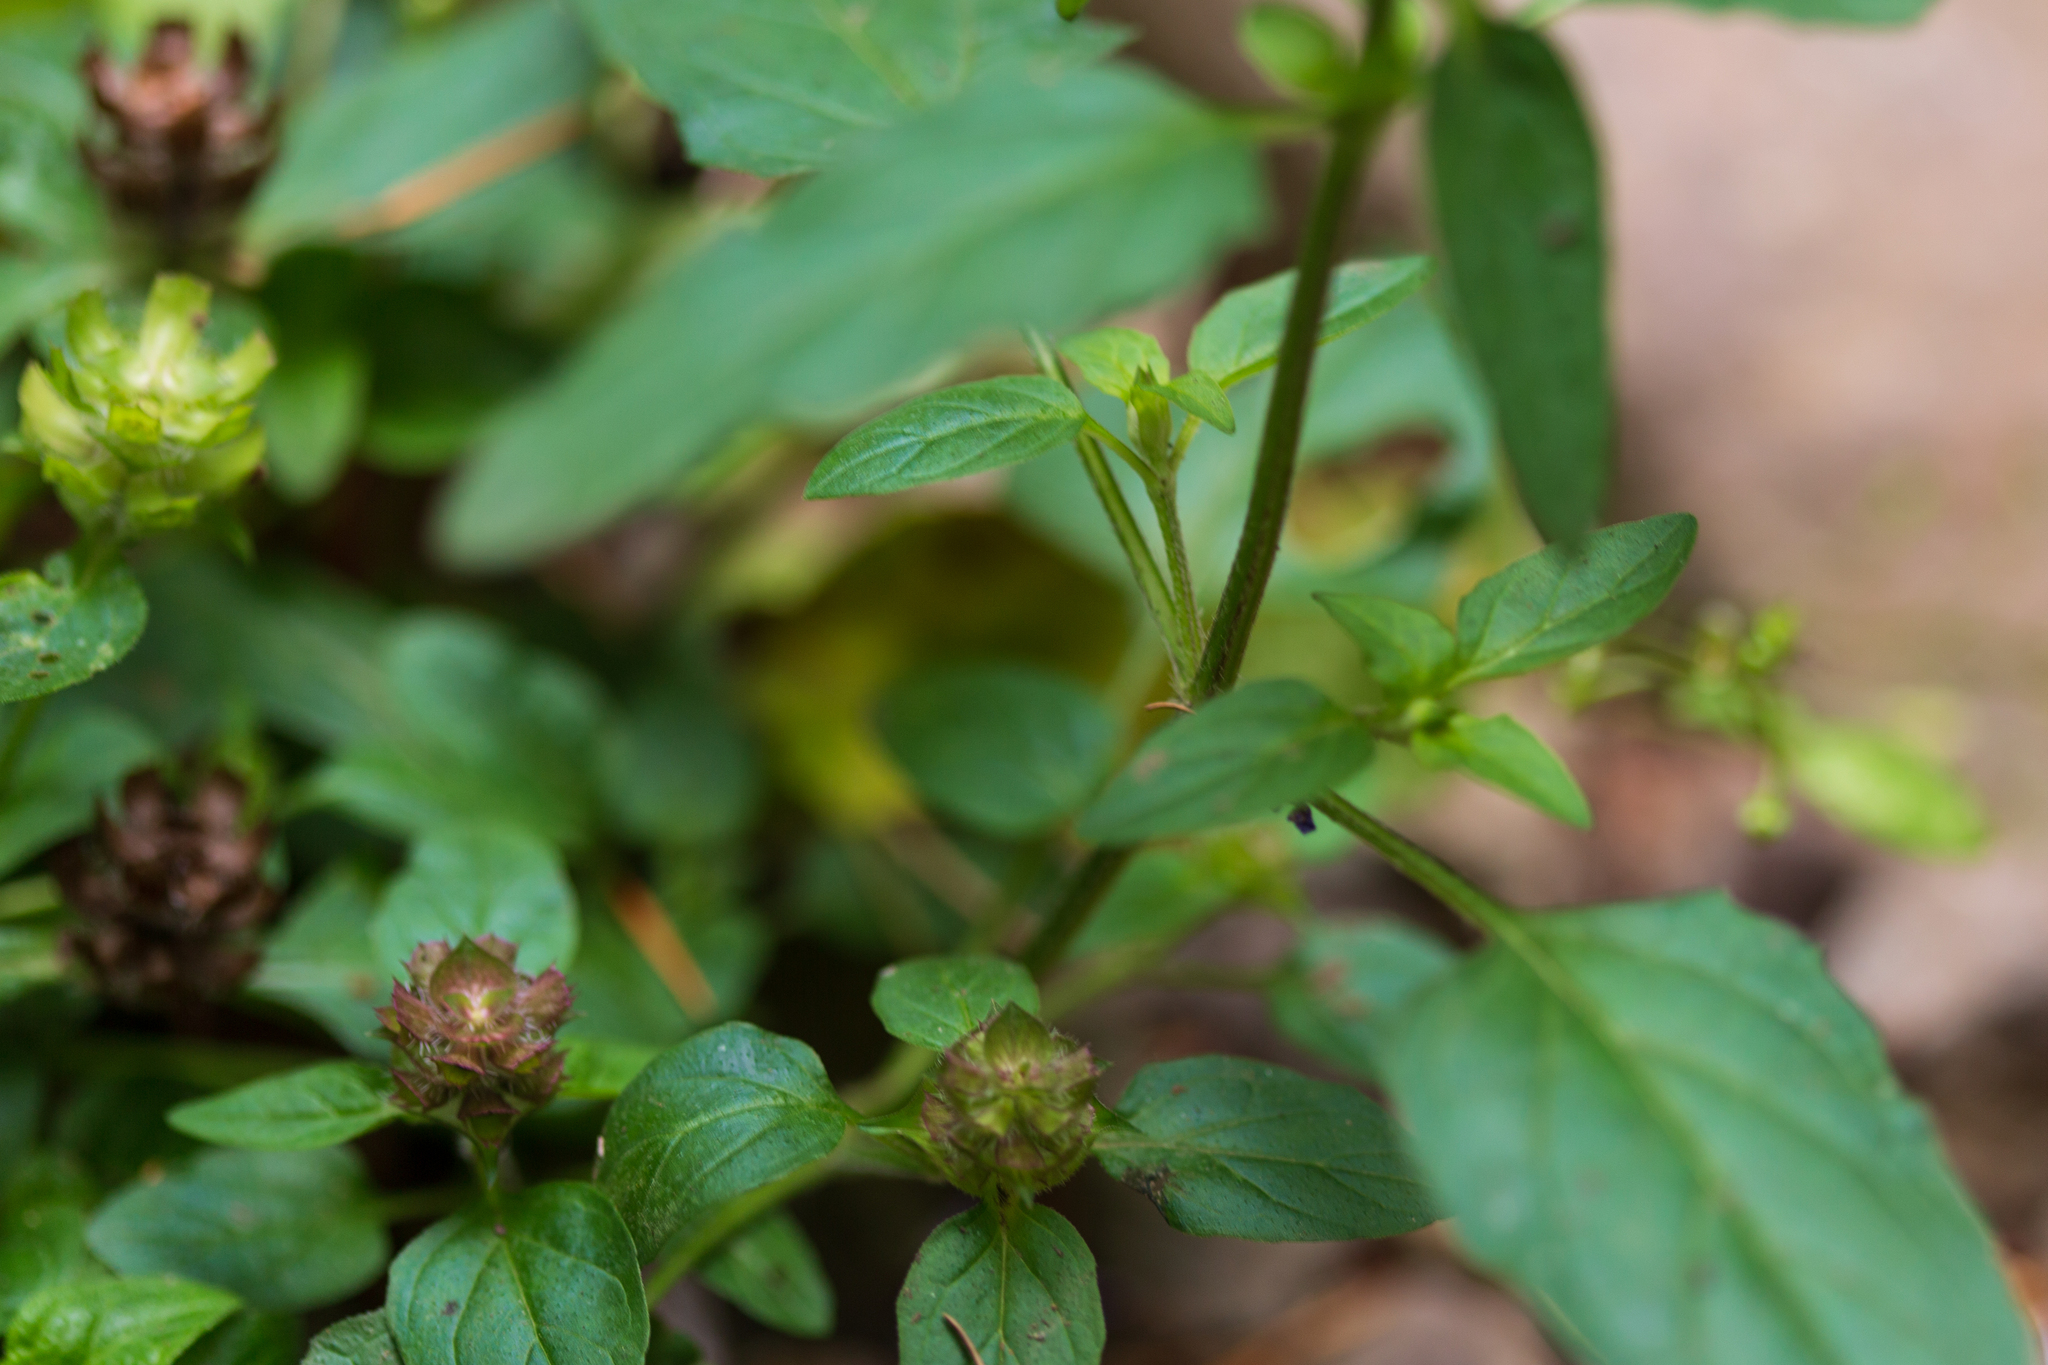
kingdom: Plantae
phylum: Tracheophyta
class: Magnoliopsida
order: Lamiales
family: Lamiaceae
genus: Prunella
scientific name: Prunella vulgaris
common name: Heal-all
